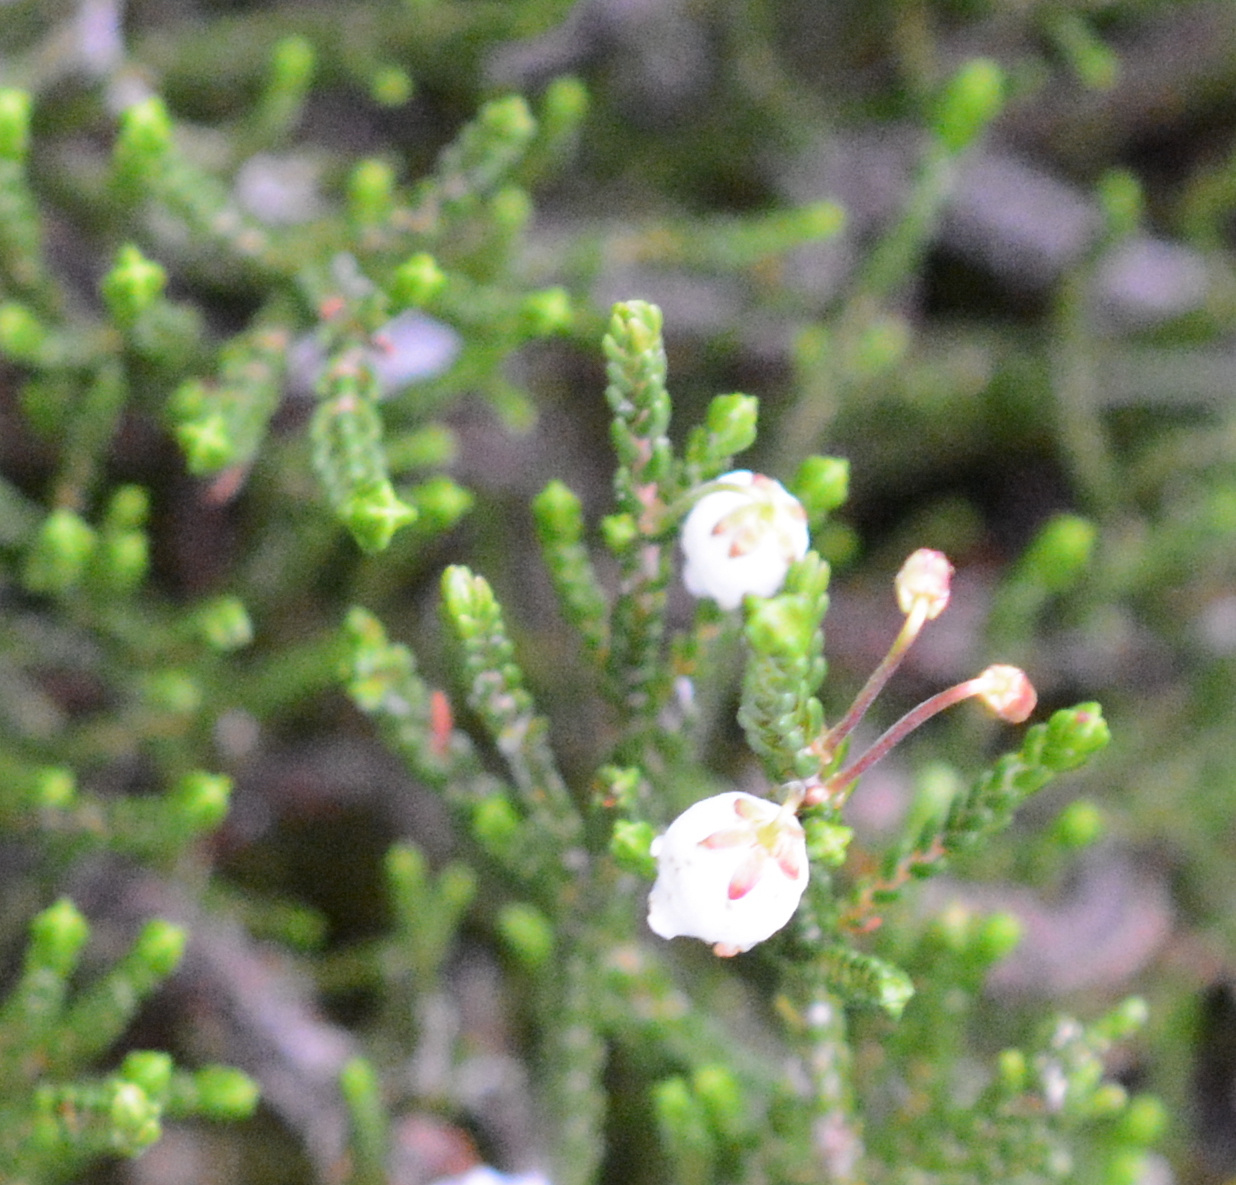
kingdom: Plantae
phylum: Tracheophyta
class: Magnoliopsida
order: Ericales
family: Ericaceae
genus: Cassiope
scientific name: Cassiope mertensiana
